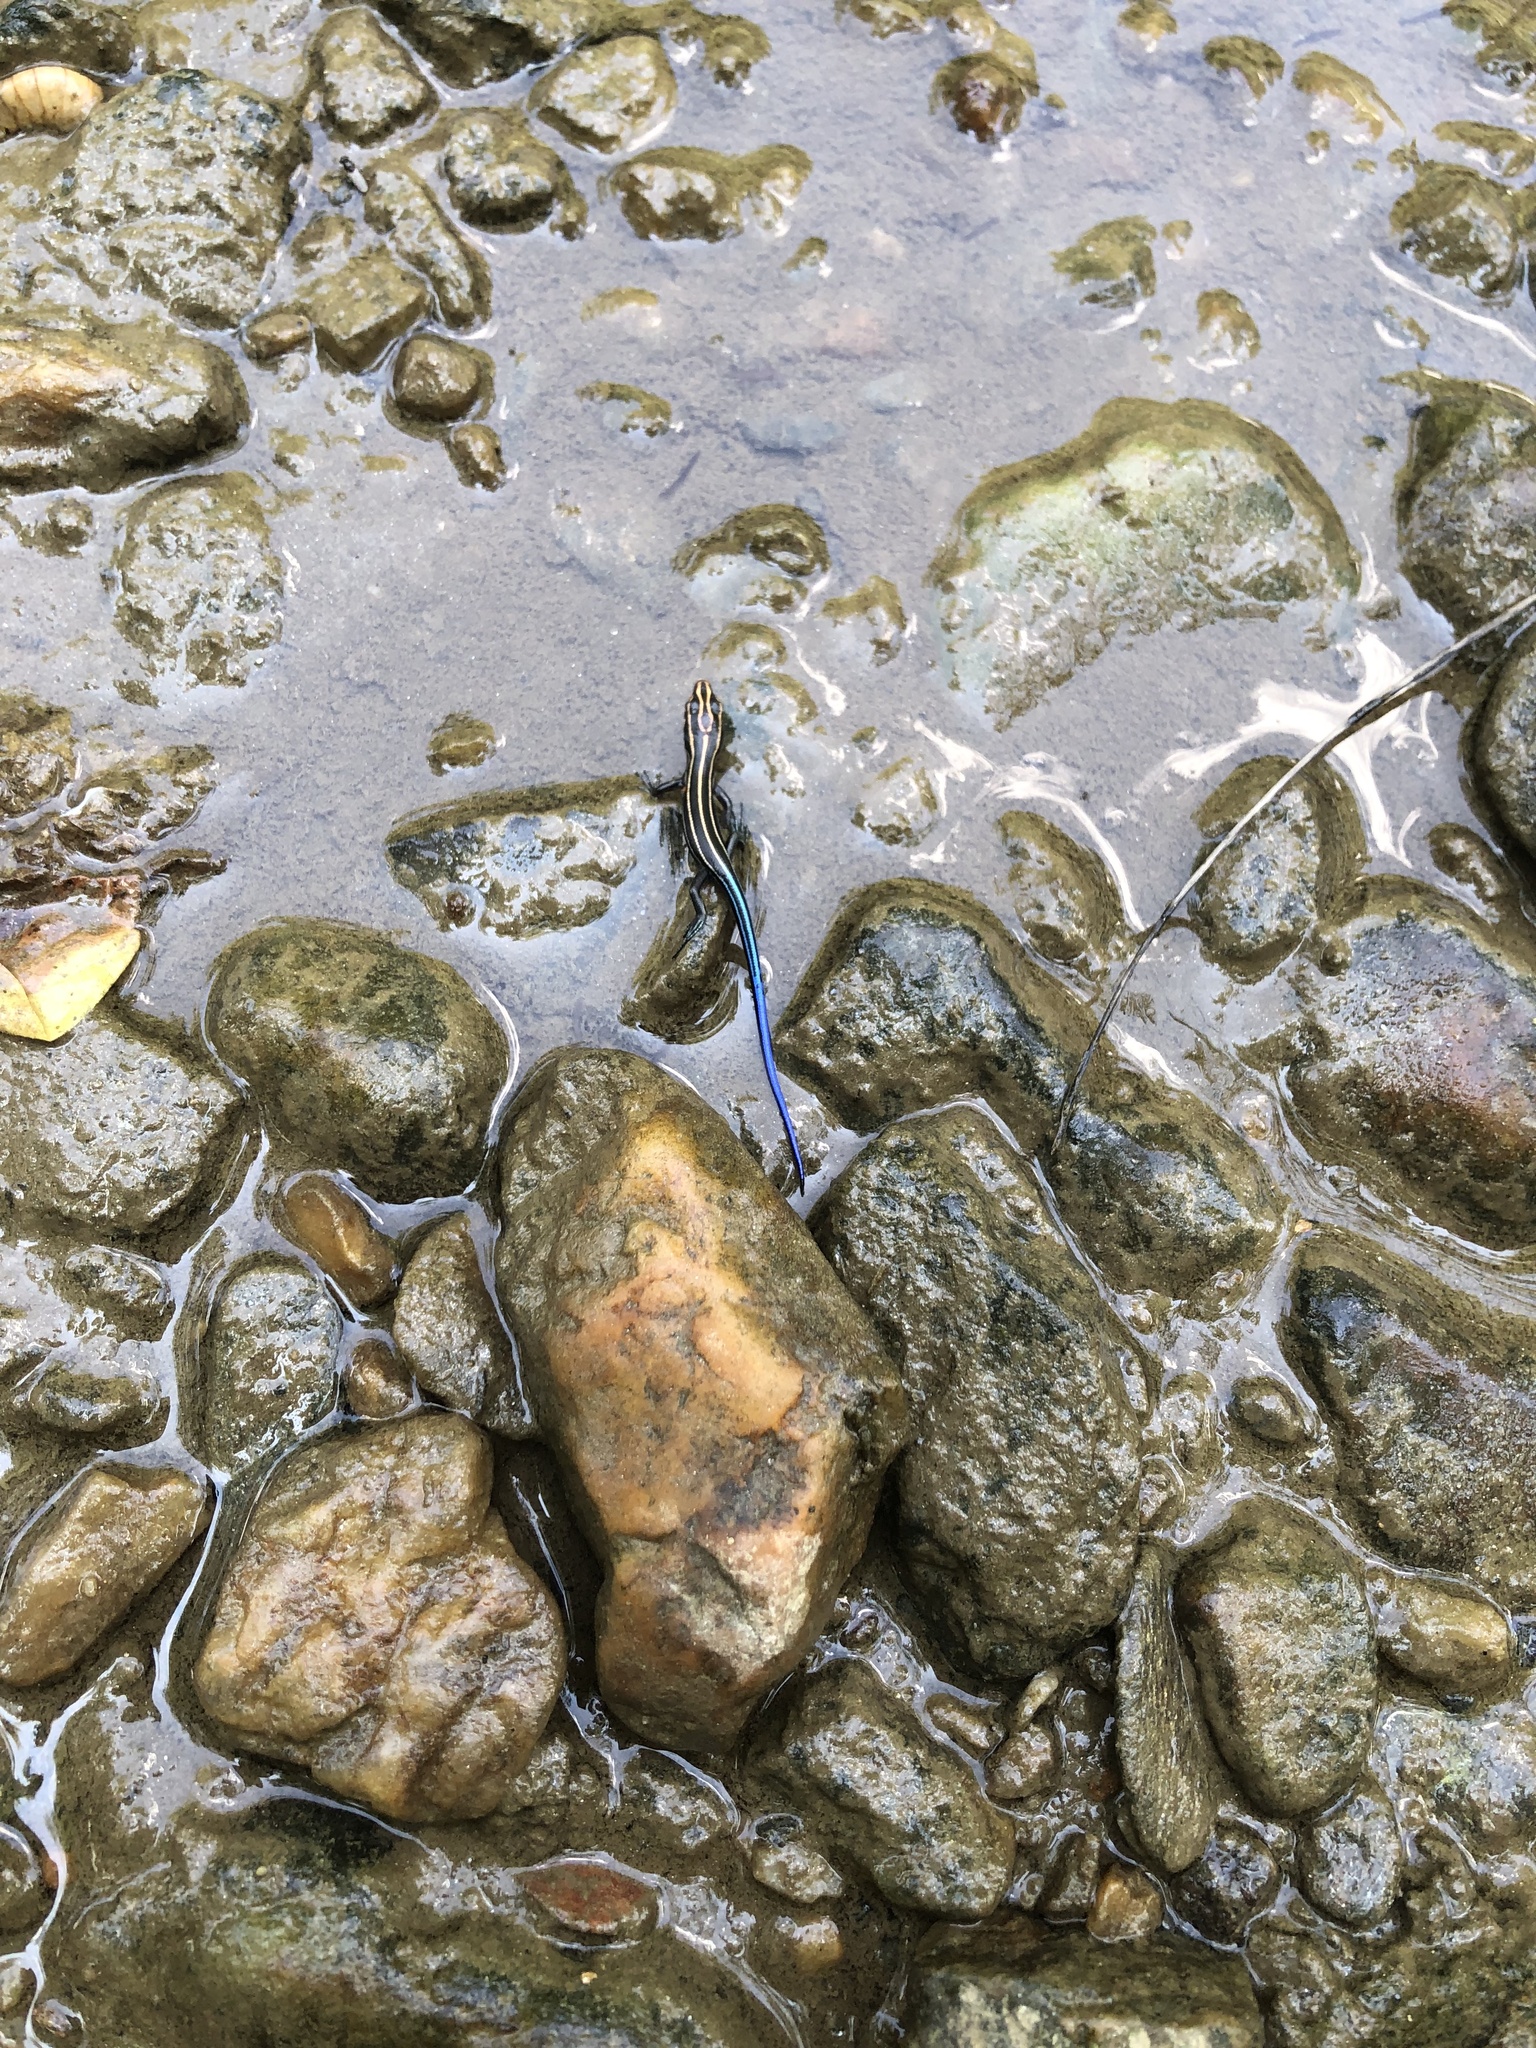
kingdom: Animalia
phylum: Chordata
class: Squamata
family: Scincidae
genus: Plestiodon
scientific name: Plestiodon fasciatus
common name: Five-lined skink
